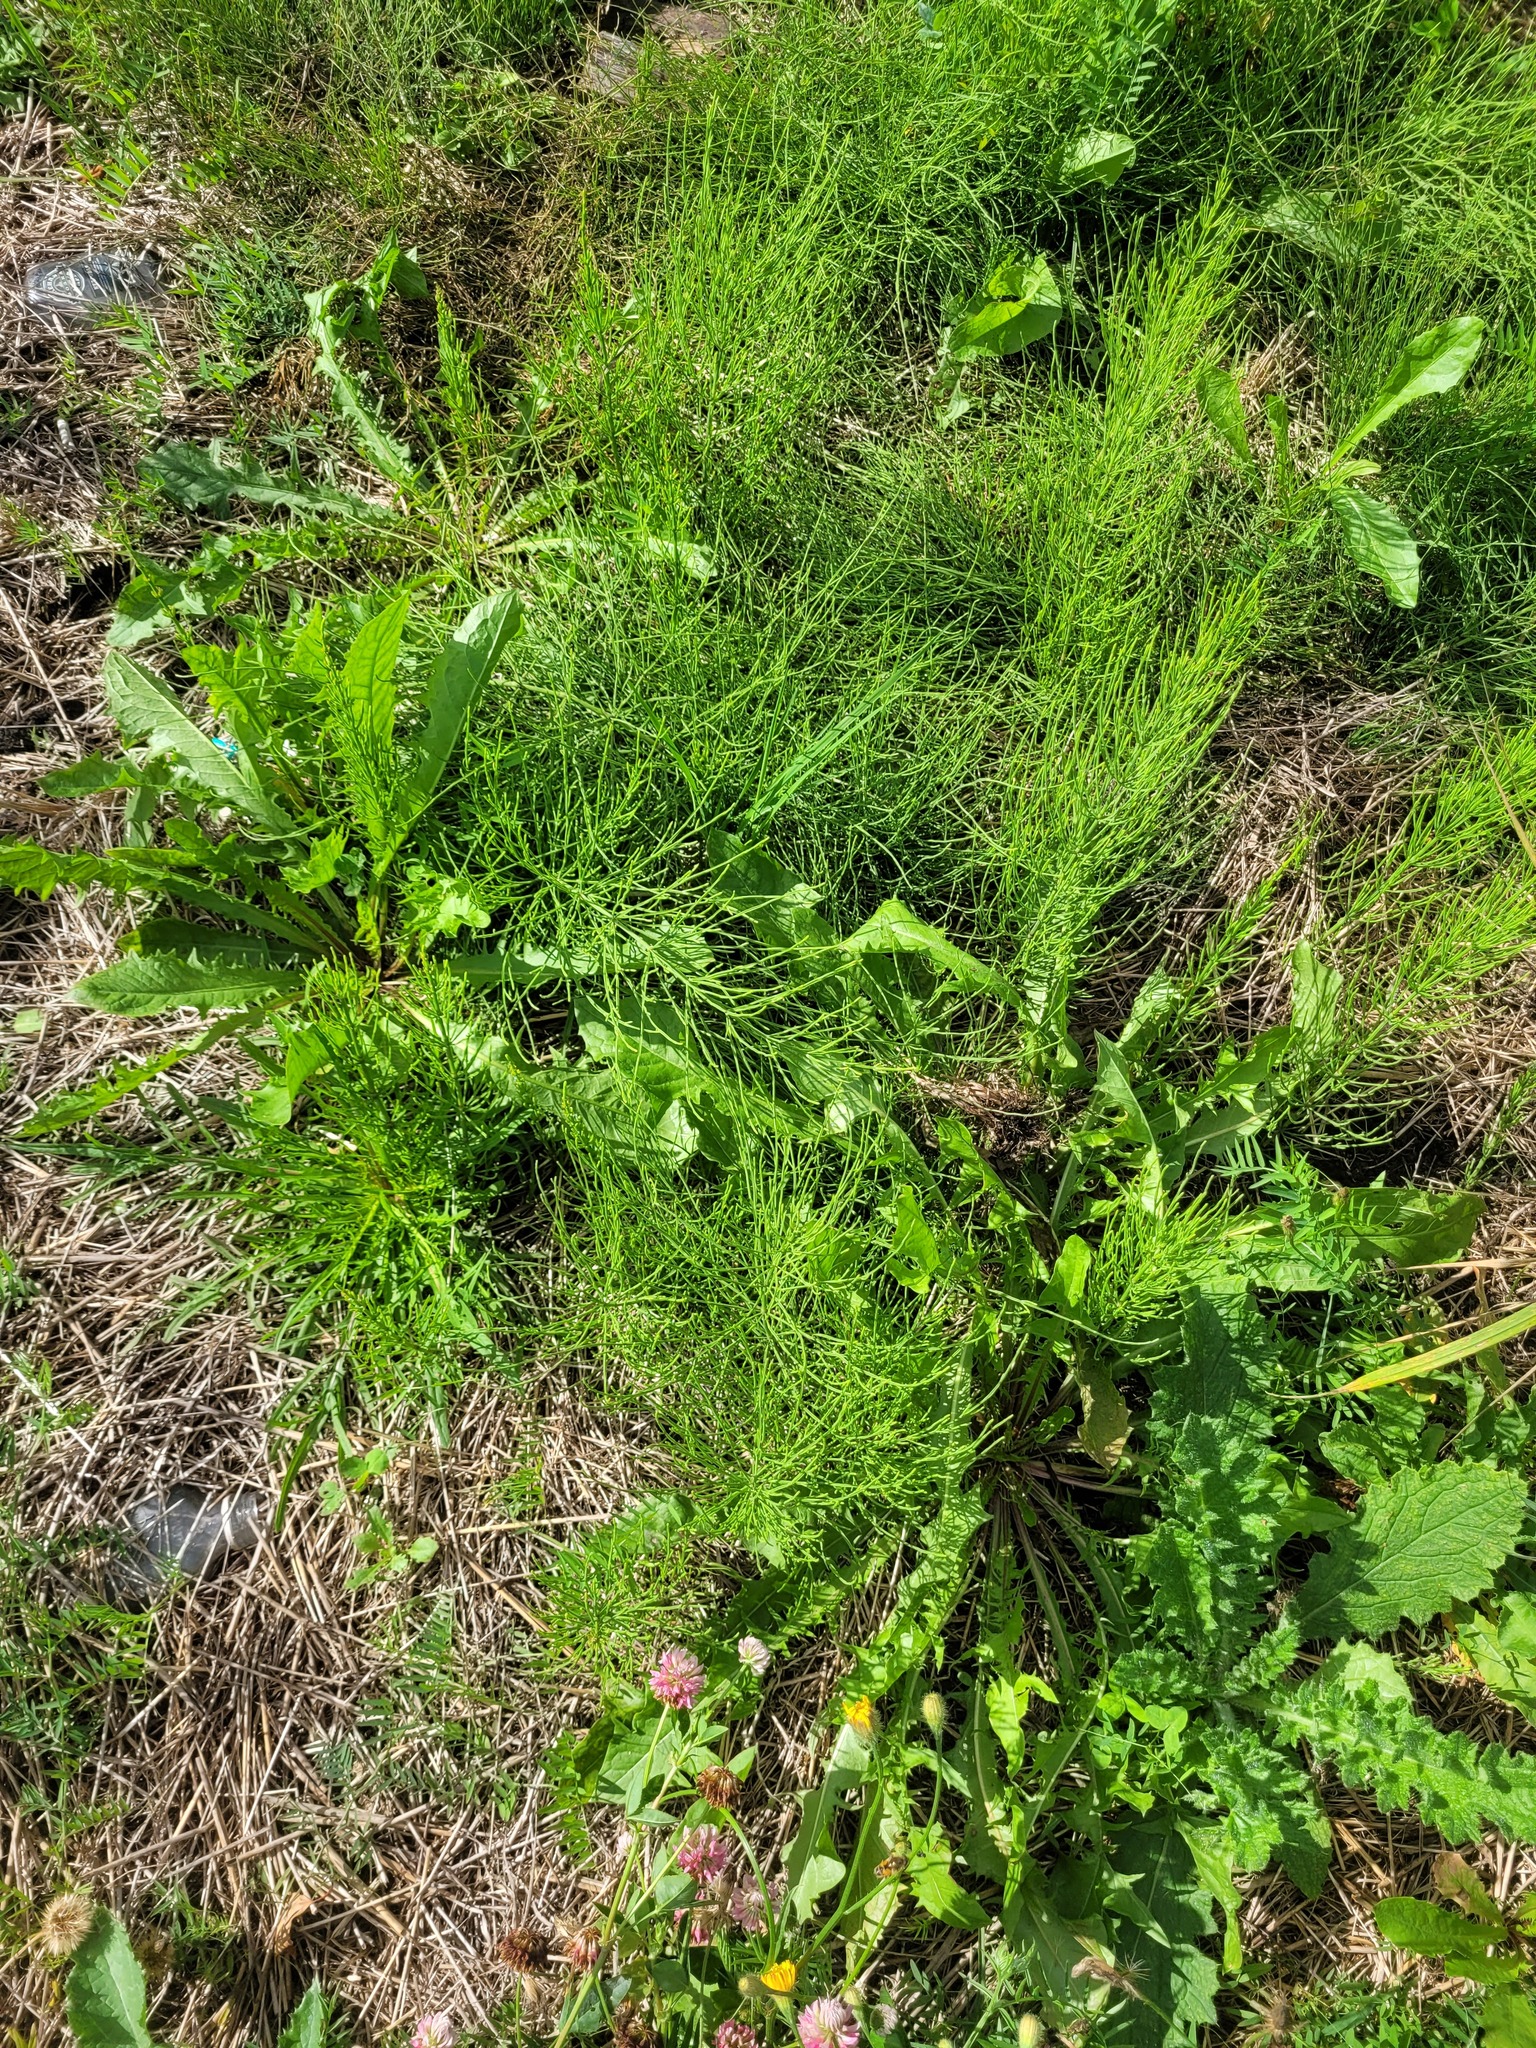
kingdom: Plantae
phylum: Tracheophyta
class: Polypodiopsida
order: Equisetales
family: Equisetaceae
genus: Equisetum
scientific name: Equisetum arvense
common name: Field horsetail
